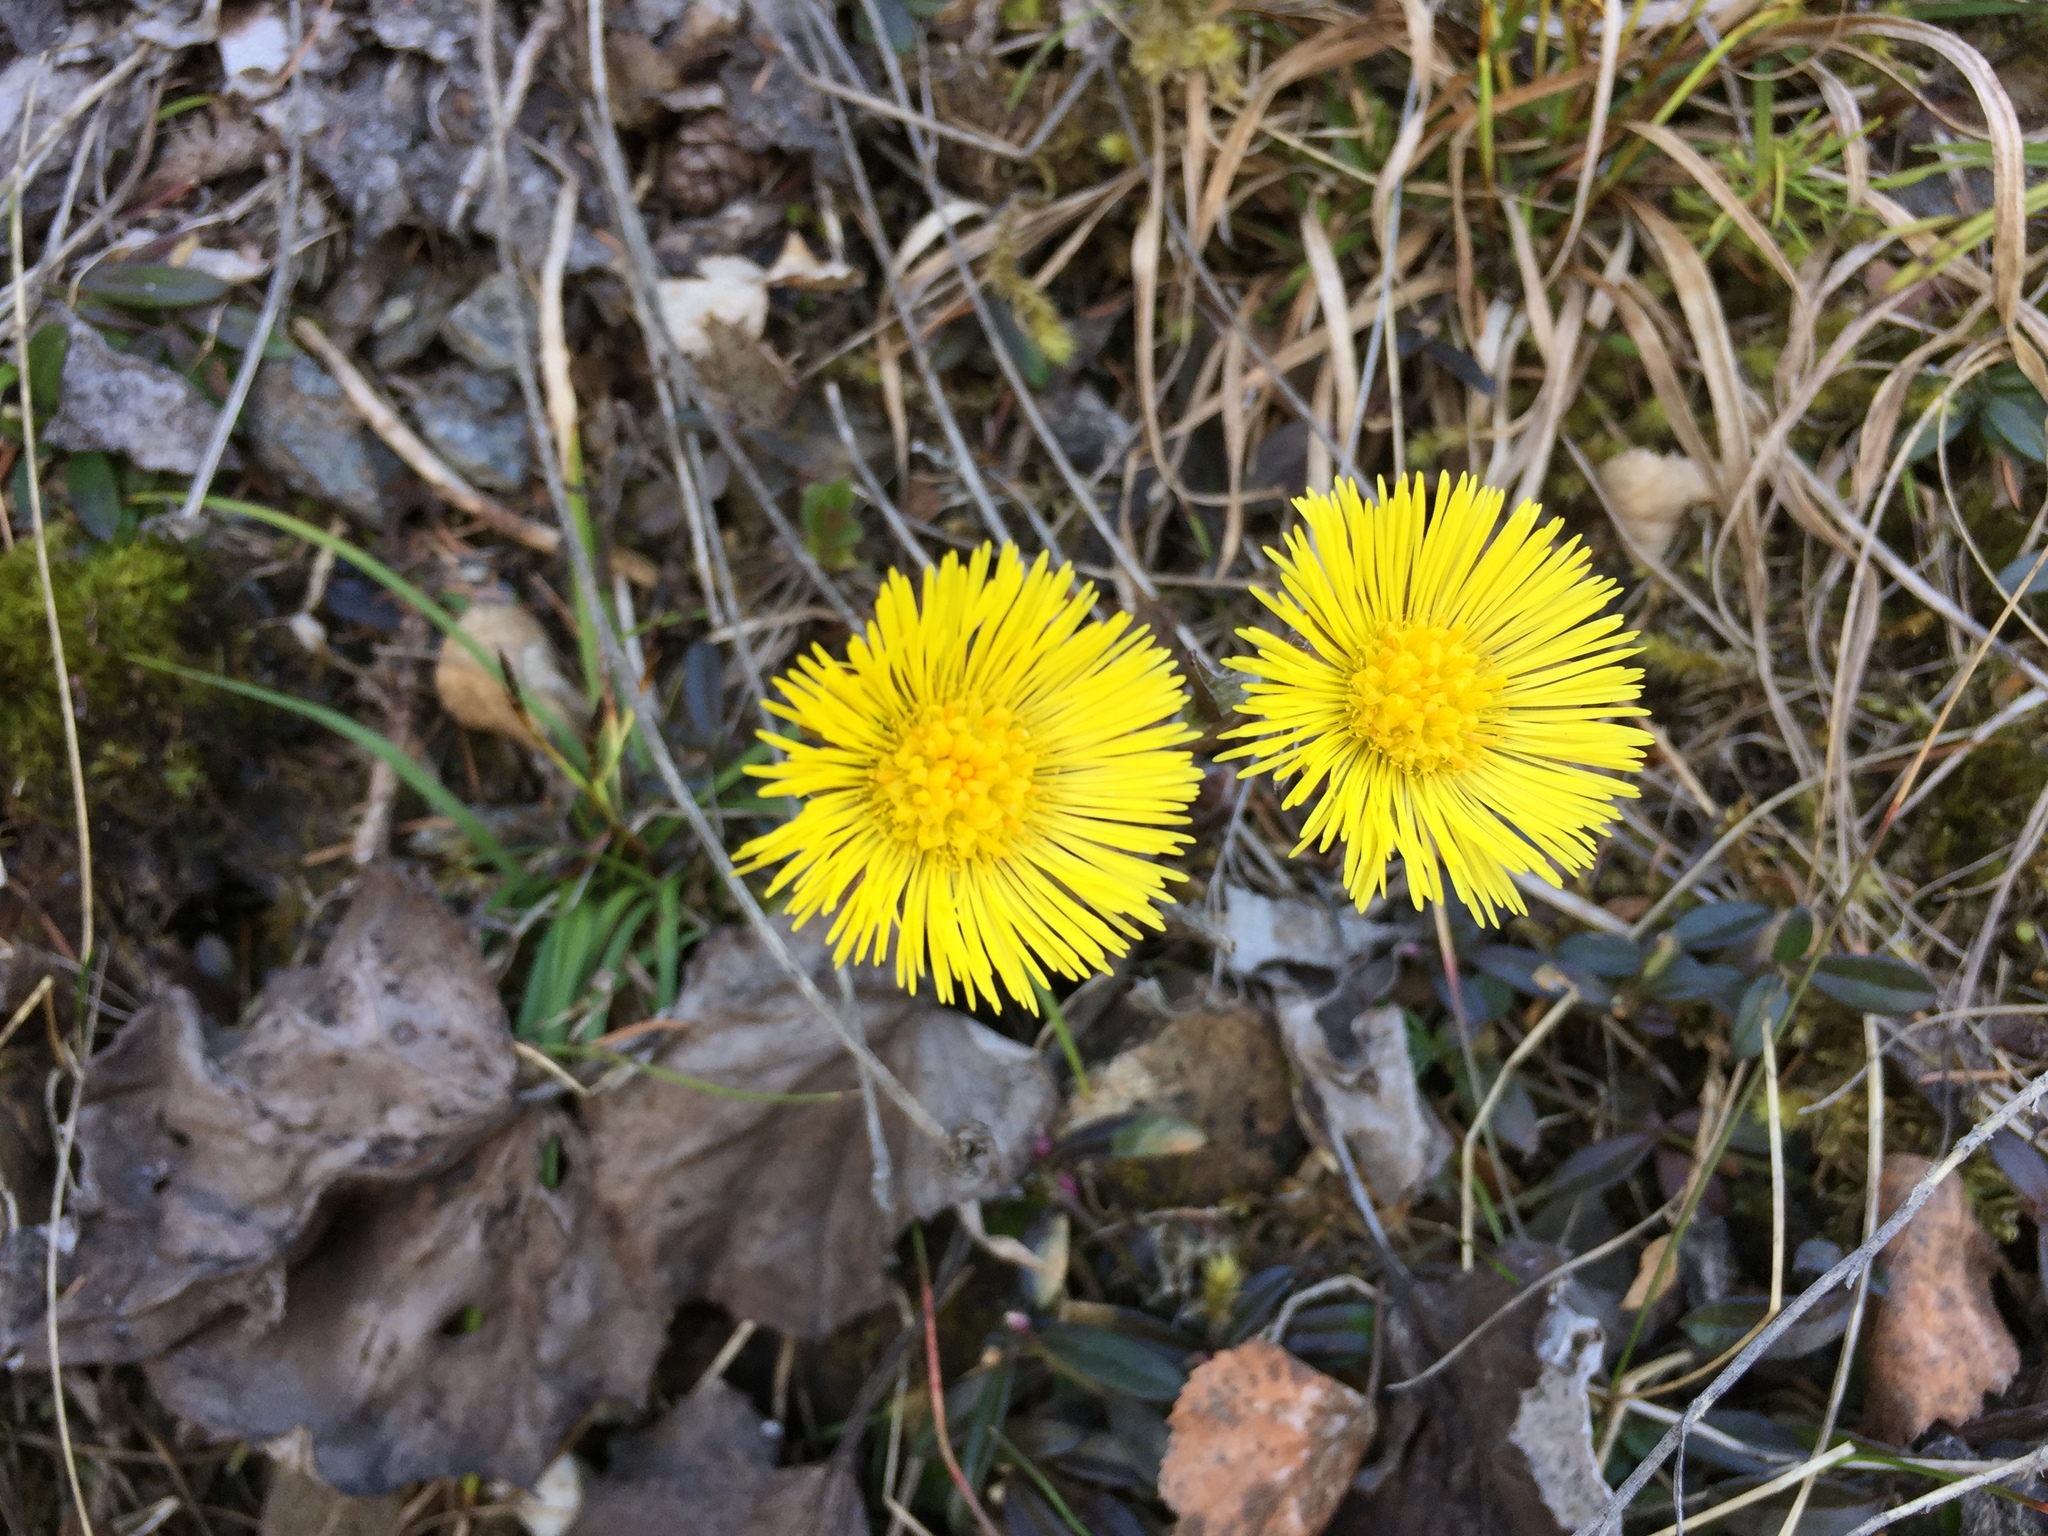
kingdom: Plantae
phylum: Tracheophyta
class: Magnoliopsida
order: Asterales
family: Asteraceae
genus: Tussilago
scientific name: Tussilago farfara
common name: Coltsfoot
